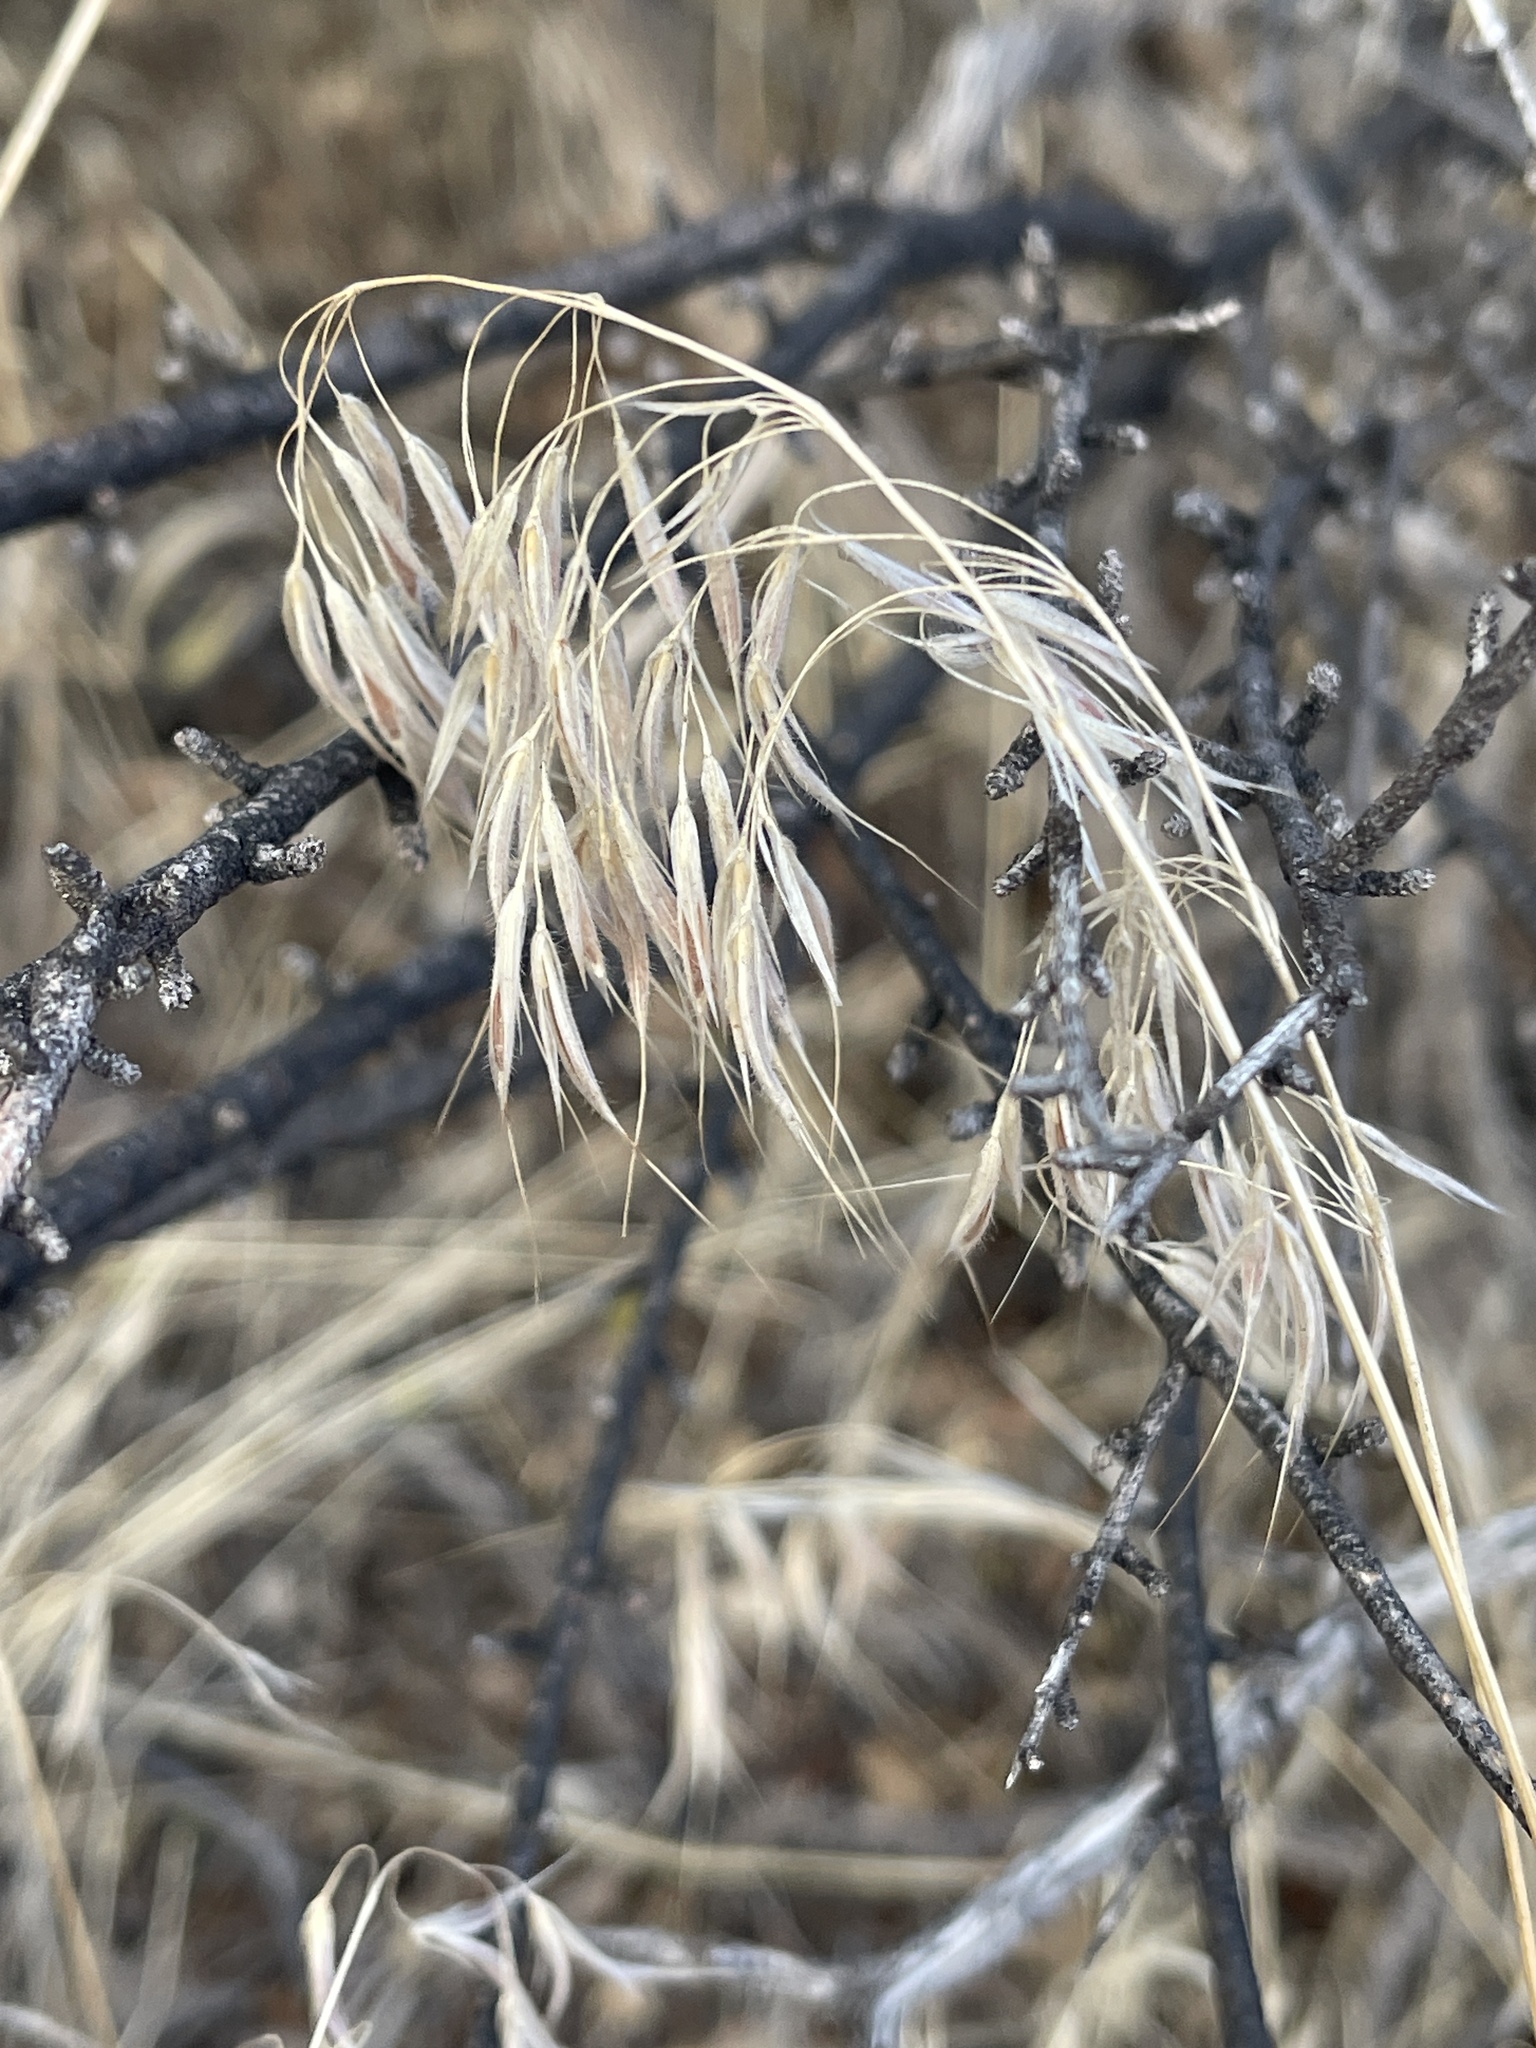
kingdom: Plantae
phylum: Tracheophyta
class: Liliopsida
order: Poales
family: Poaceae
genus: Bromus
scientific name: Bromus tectorum
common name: Cheatgrass
